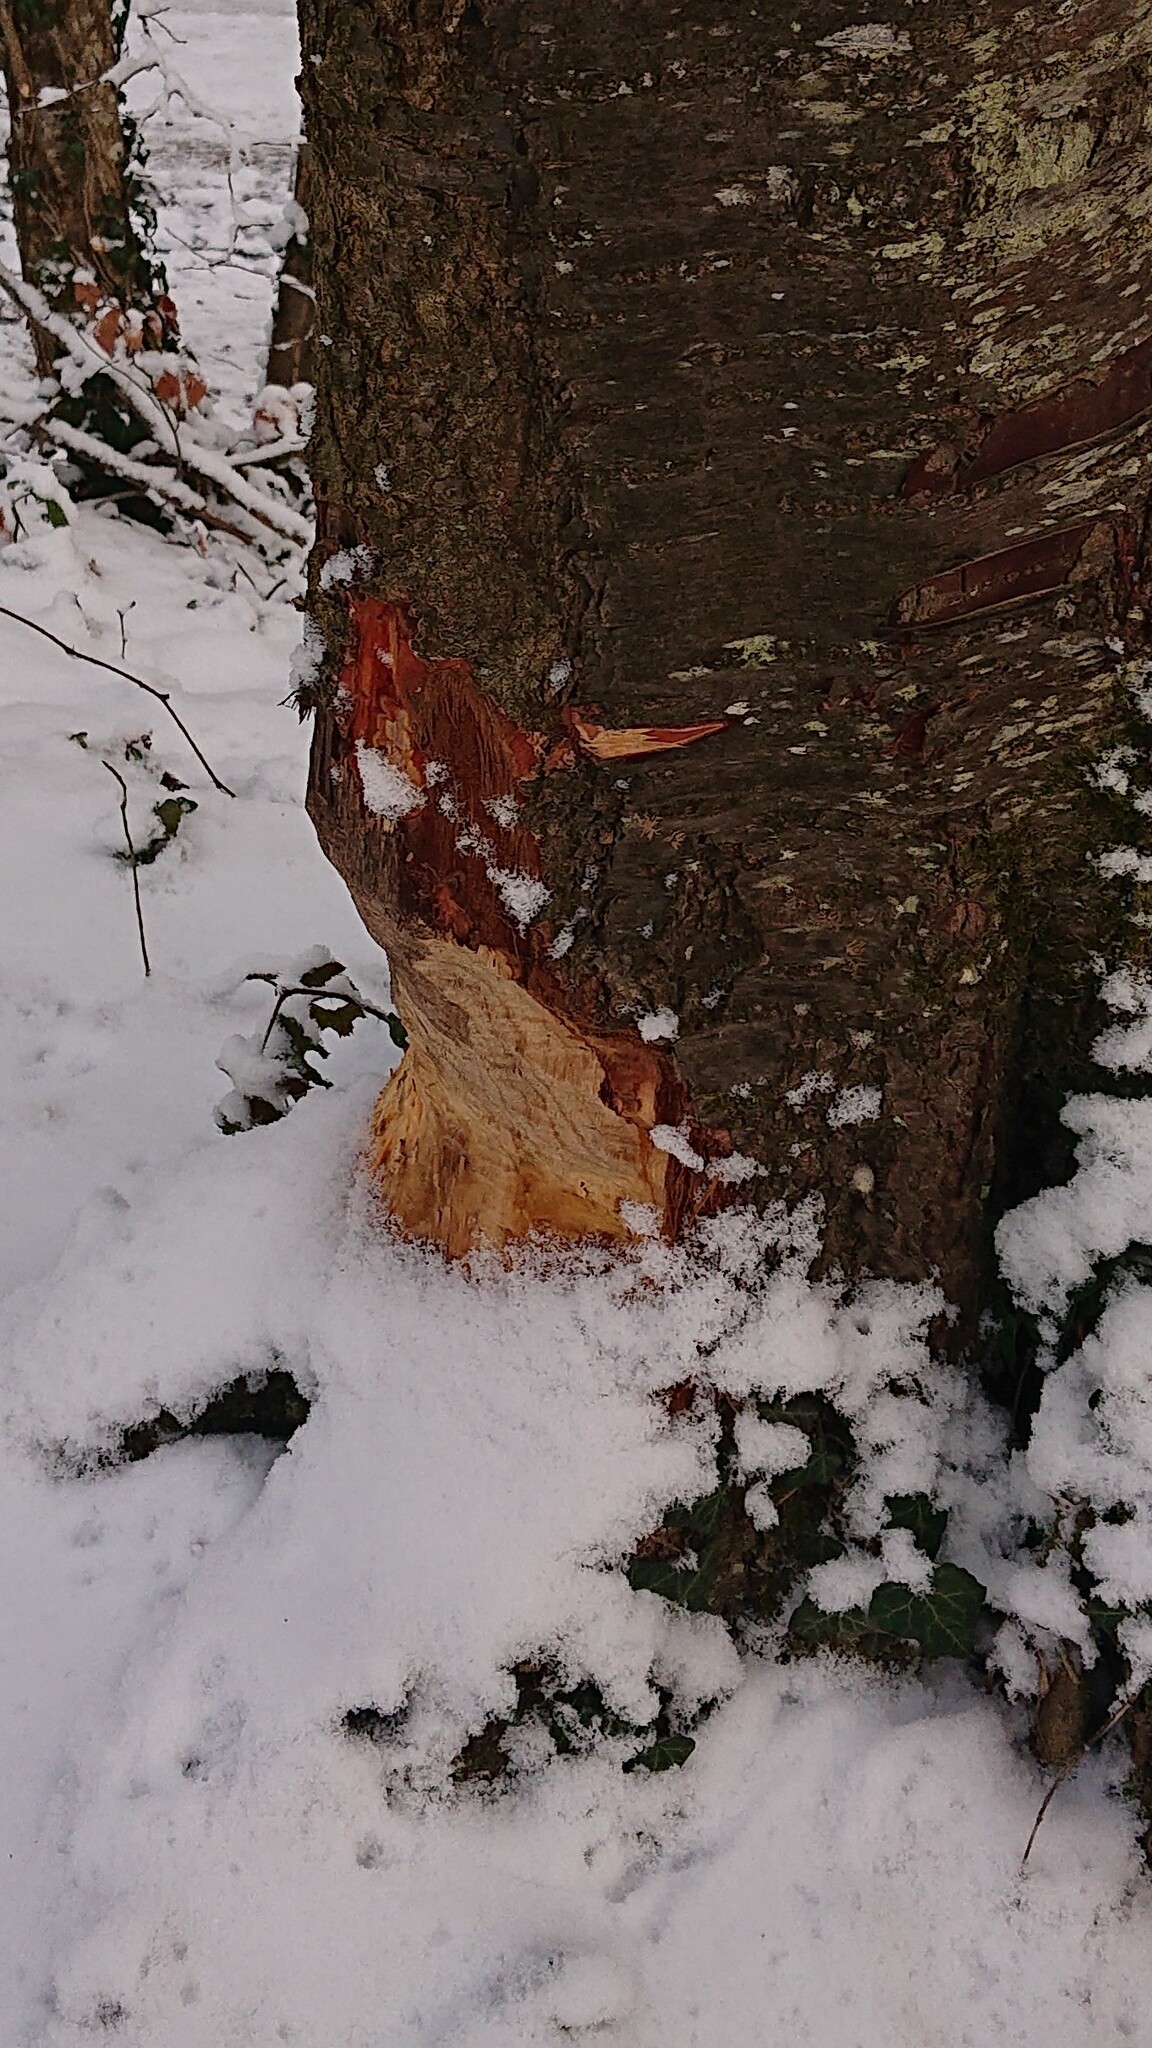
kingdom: Animalia
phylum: Chordata
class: Mammalia
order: Rodentia
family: Castoridae
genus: Castor
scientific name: Castor fiber
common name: Eurasian beaver
